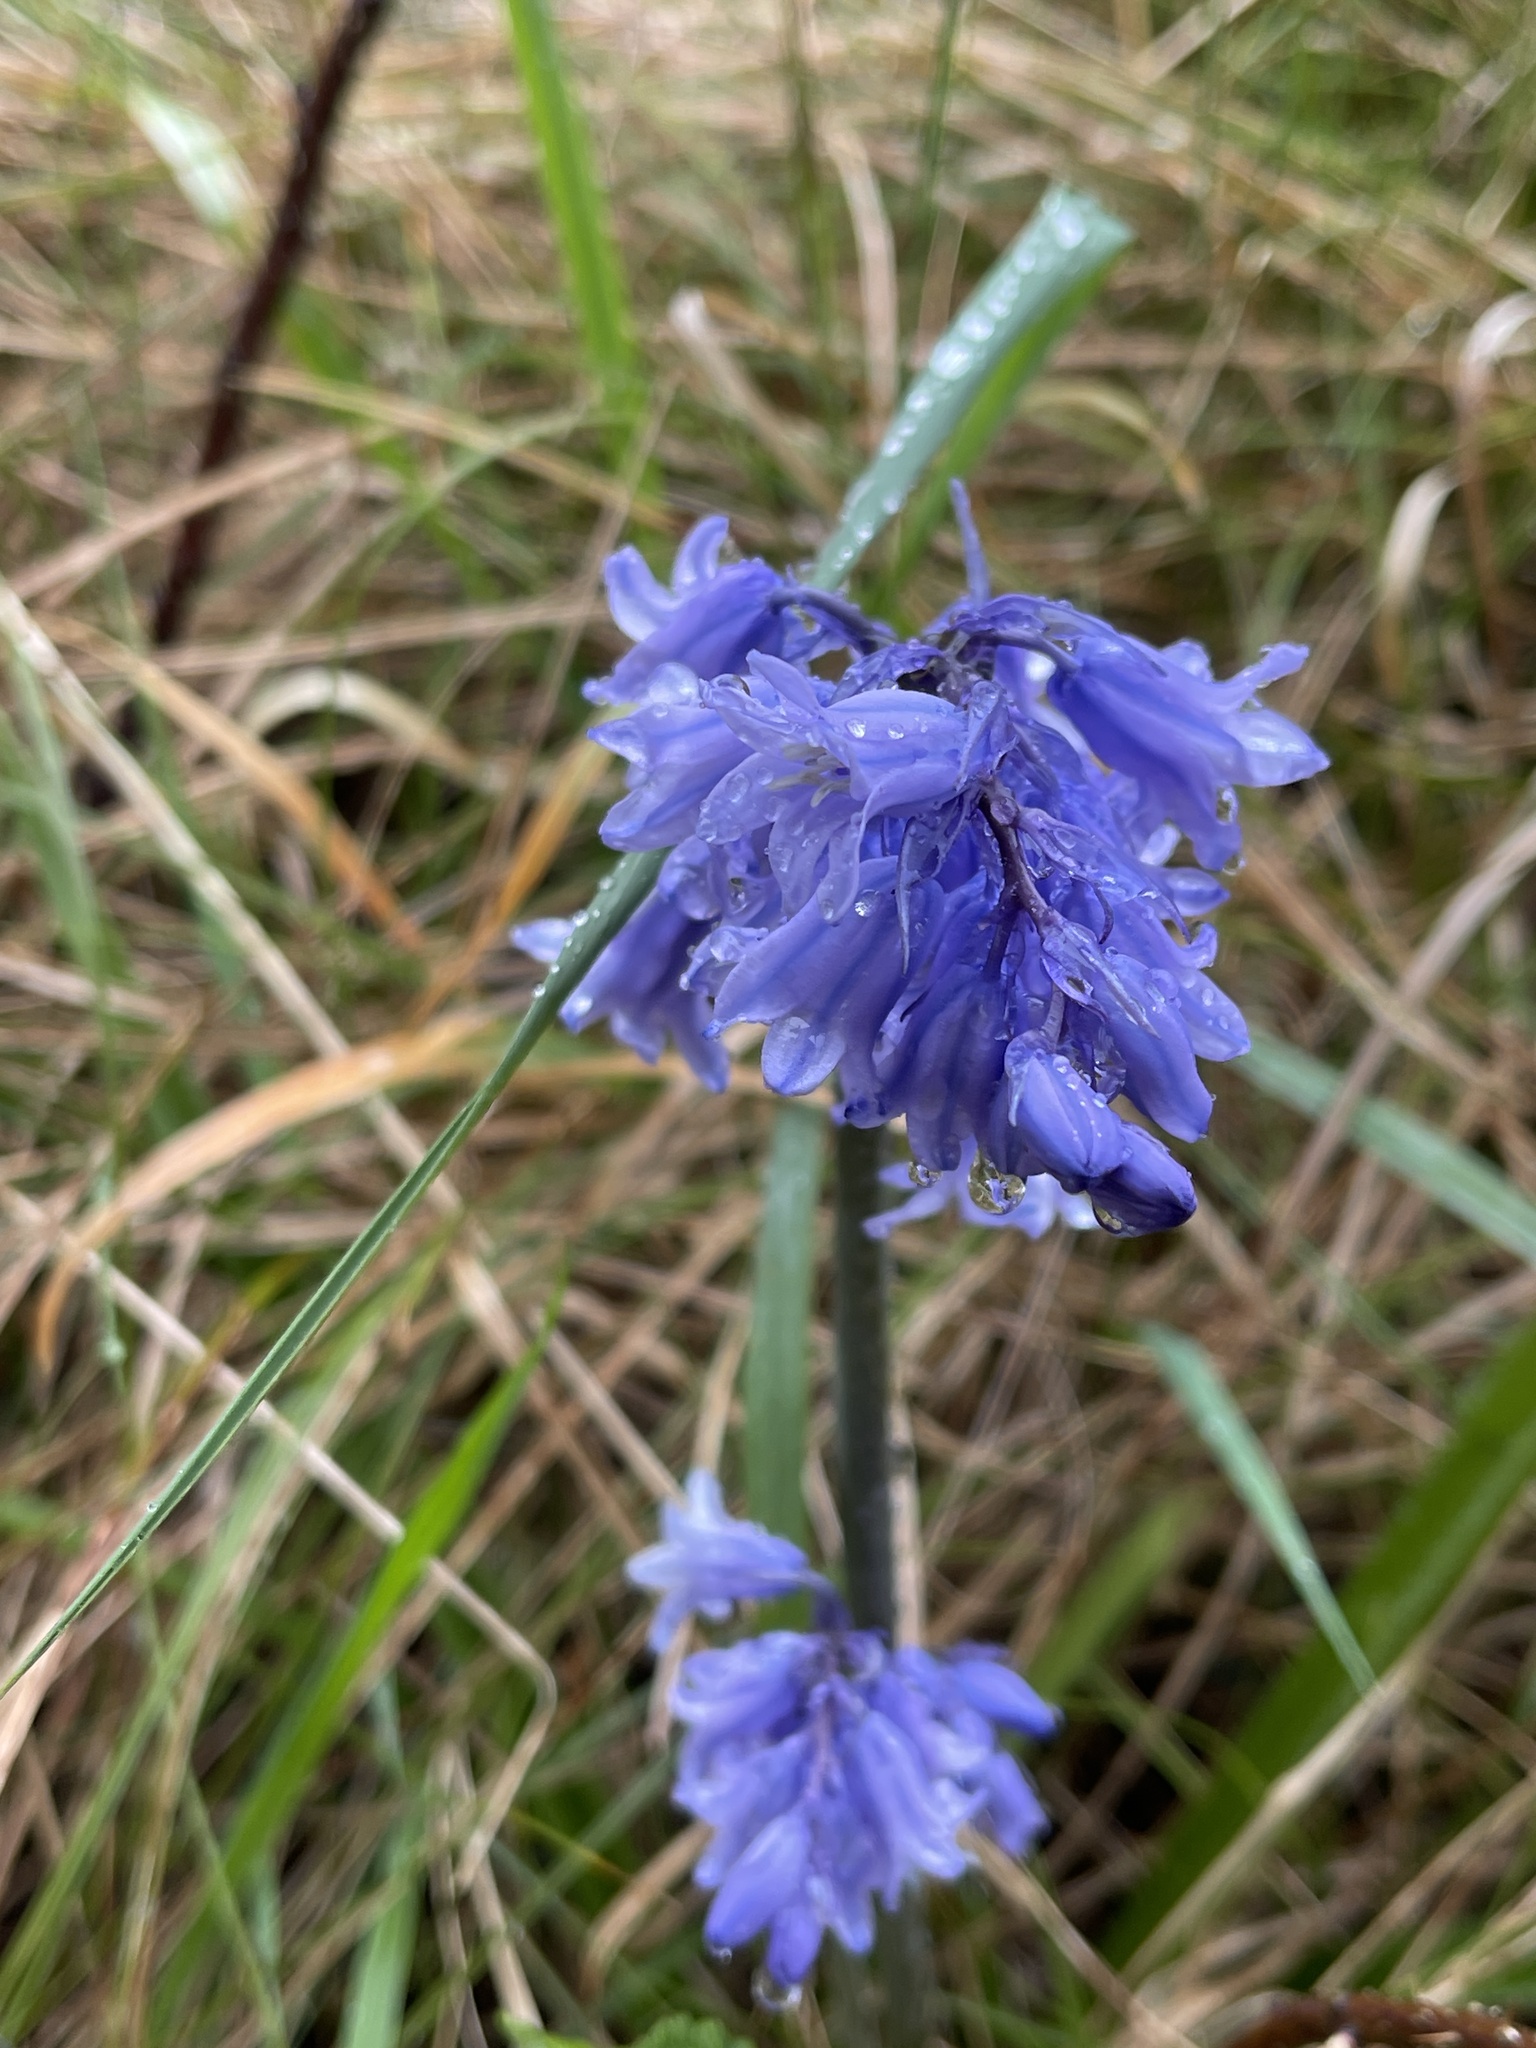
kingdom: Plantae
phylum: Tracheophyta
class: Liliopsida
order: Asparagales
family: Asparagaceae
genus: Hyacinthoides
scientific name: Hyacinthoides massartiana
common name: Hyacinthoides
